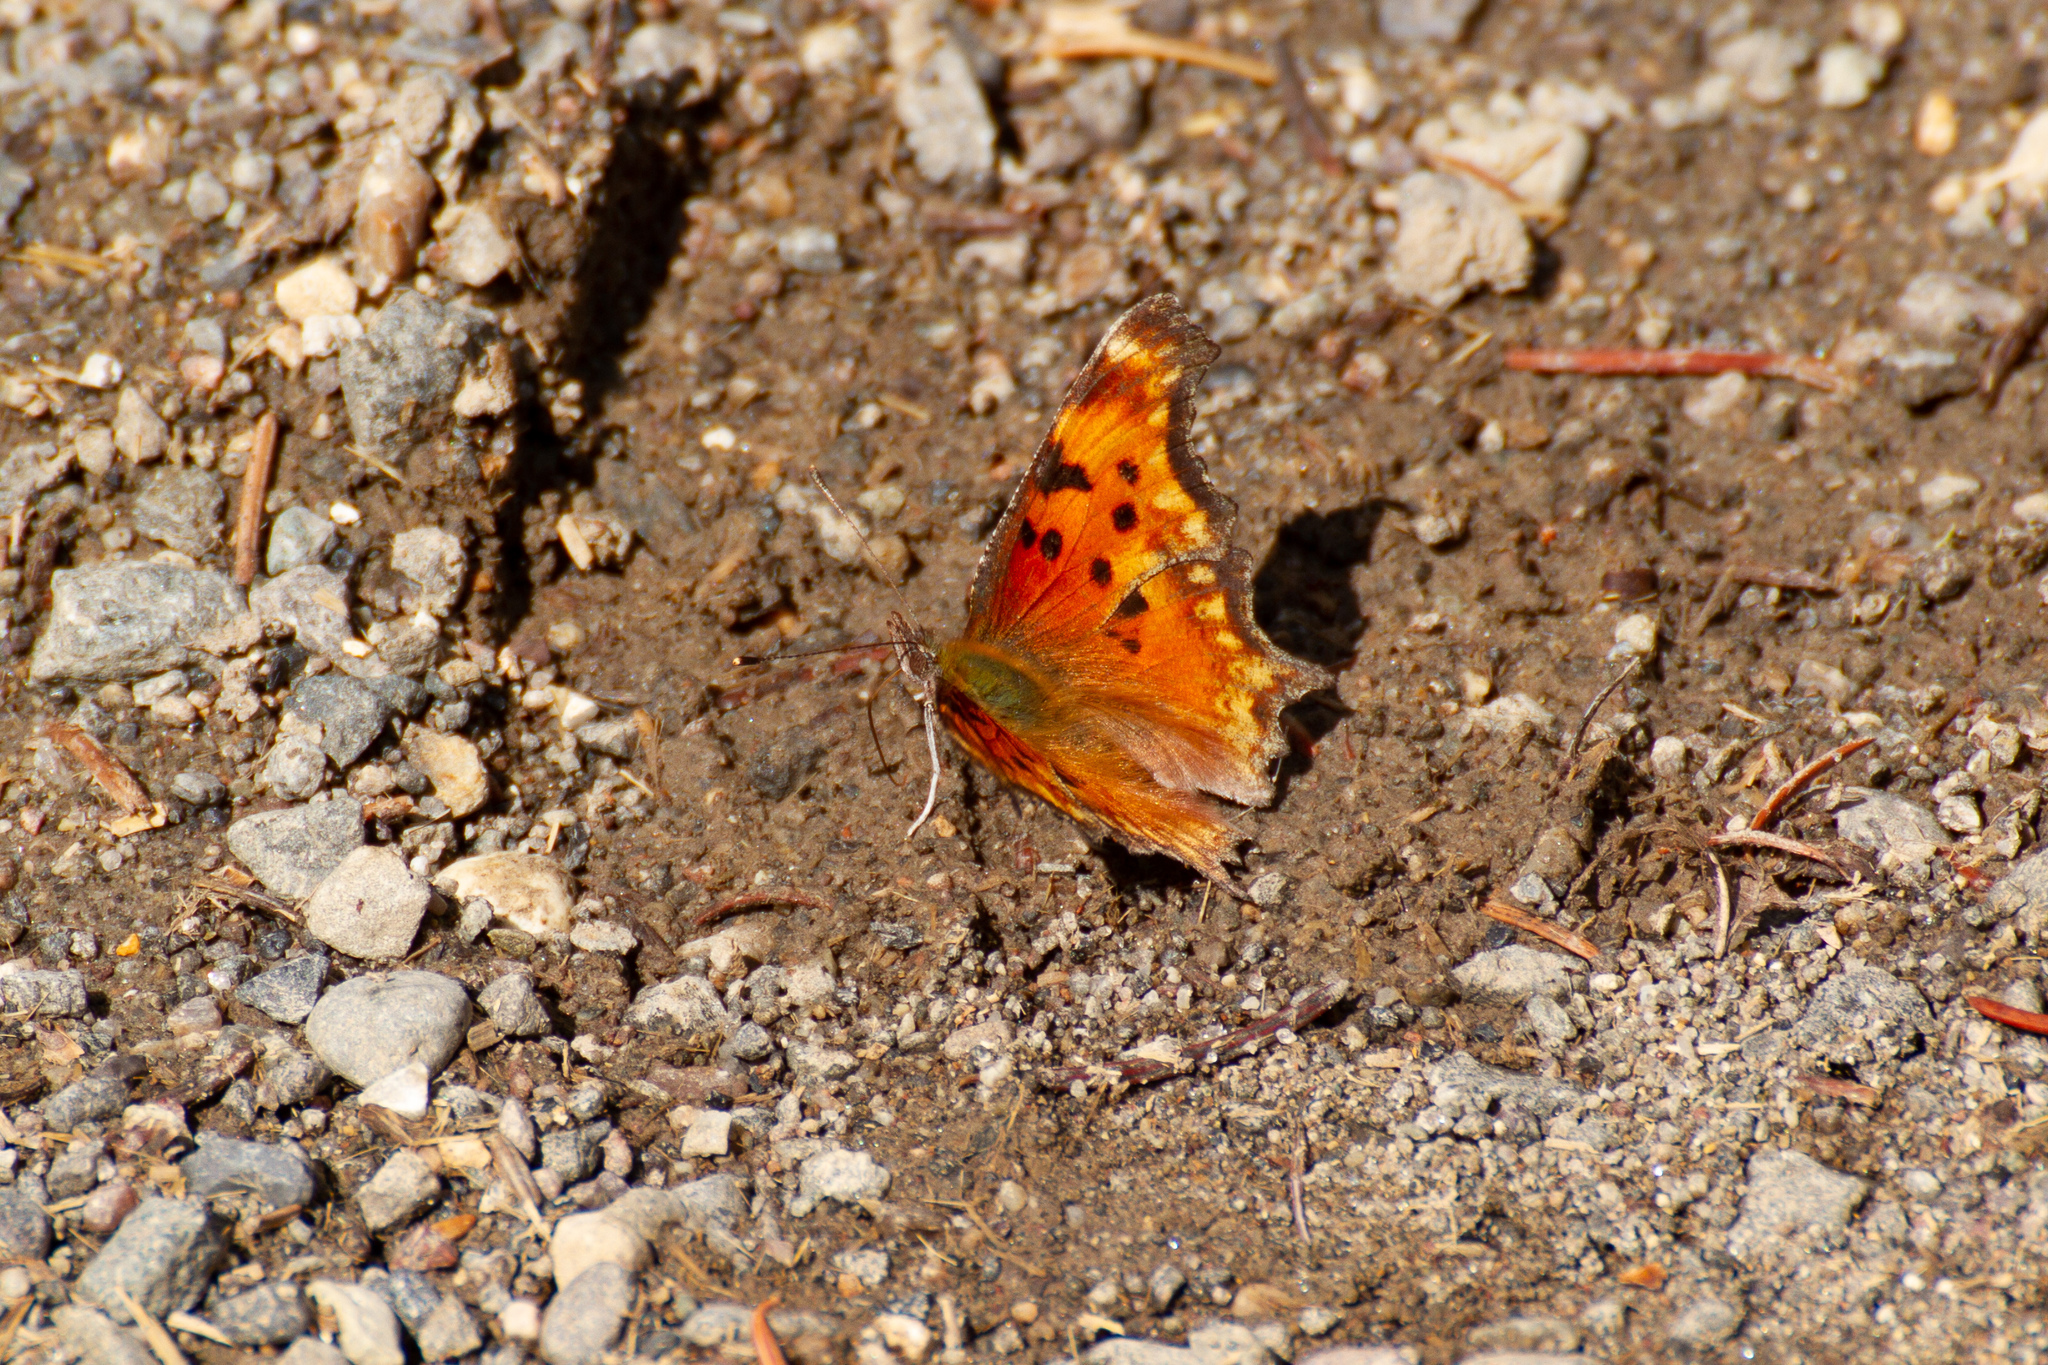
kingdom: Animalia
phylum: Arthropoda
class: Insecta
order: Lepidoptera
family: Nymphalidae
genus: Polygonia
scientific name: Polygonia gracilis
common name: Hoary comma
